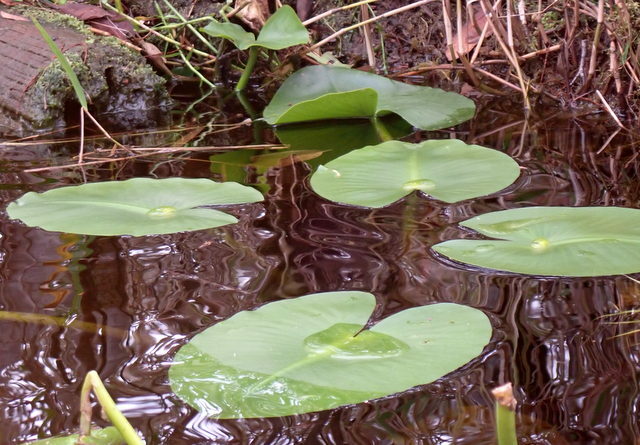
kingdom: Plantae
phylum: Tracheophyta
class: Magnoliopsida
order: Nymphaeales
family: Nymphaeaceae
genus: Nuphar
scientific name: Nuphar advena
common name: Spatter-dock
